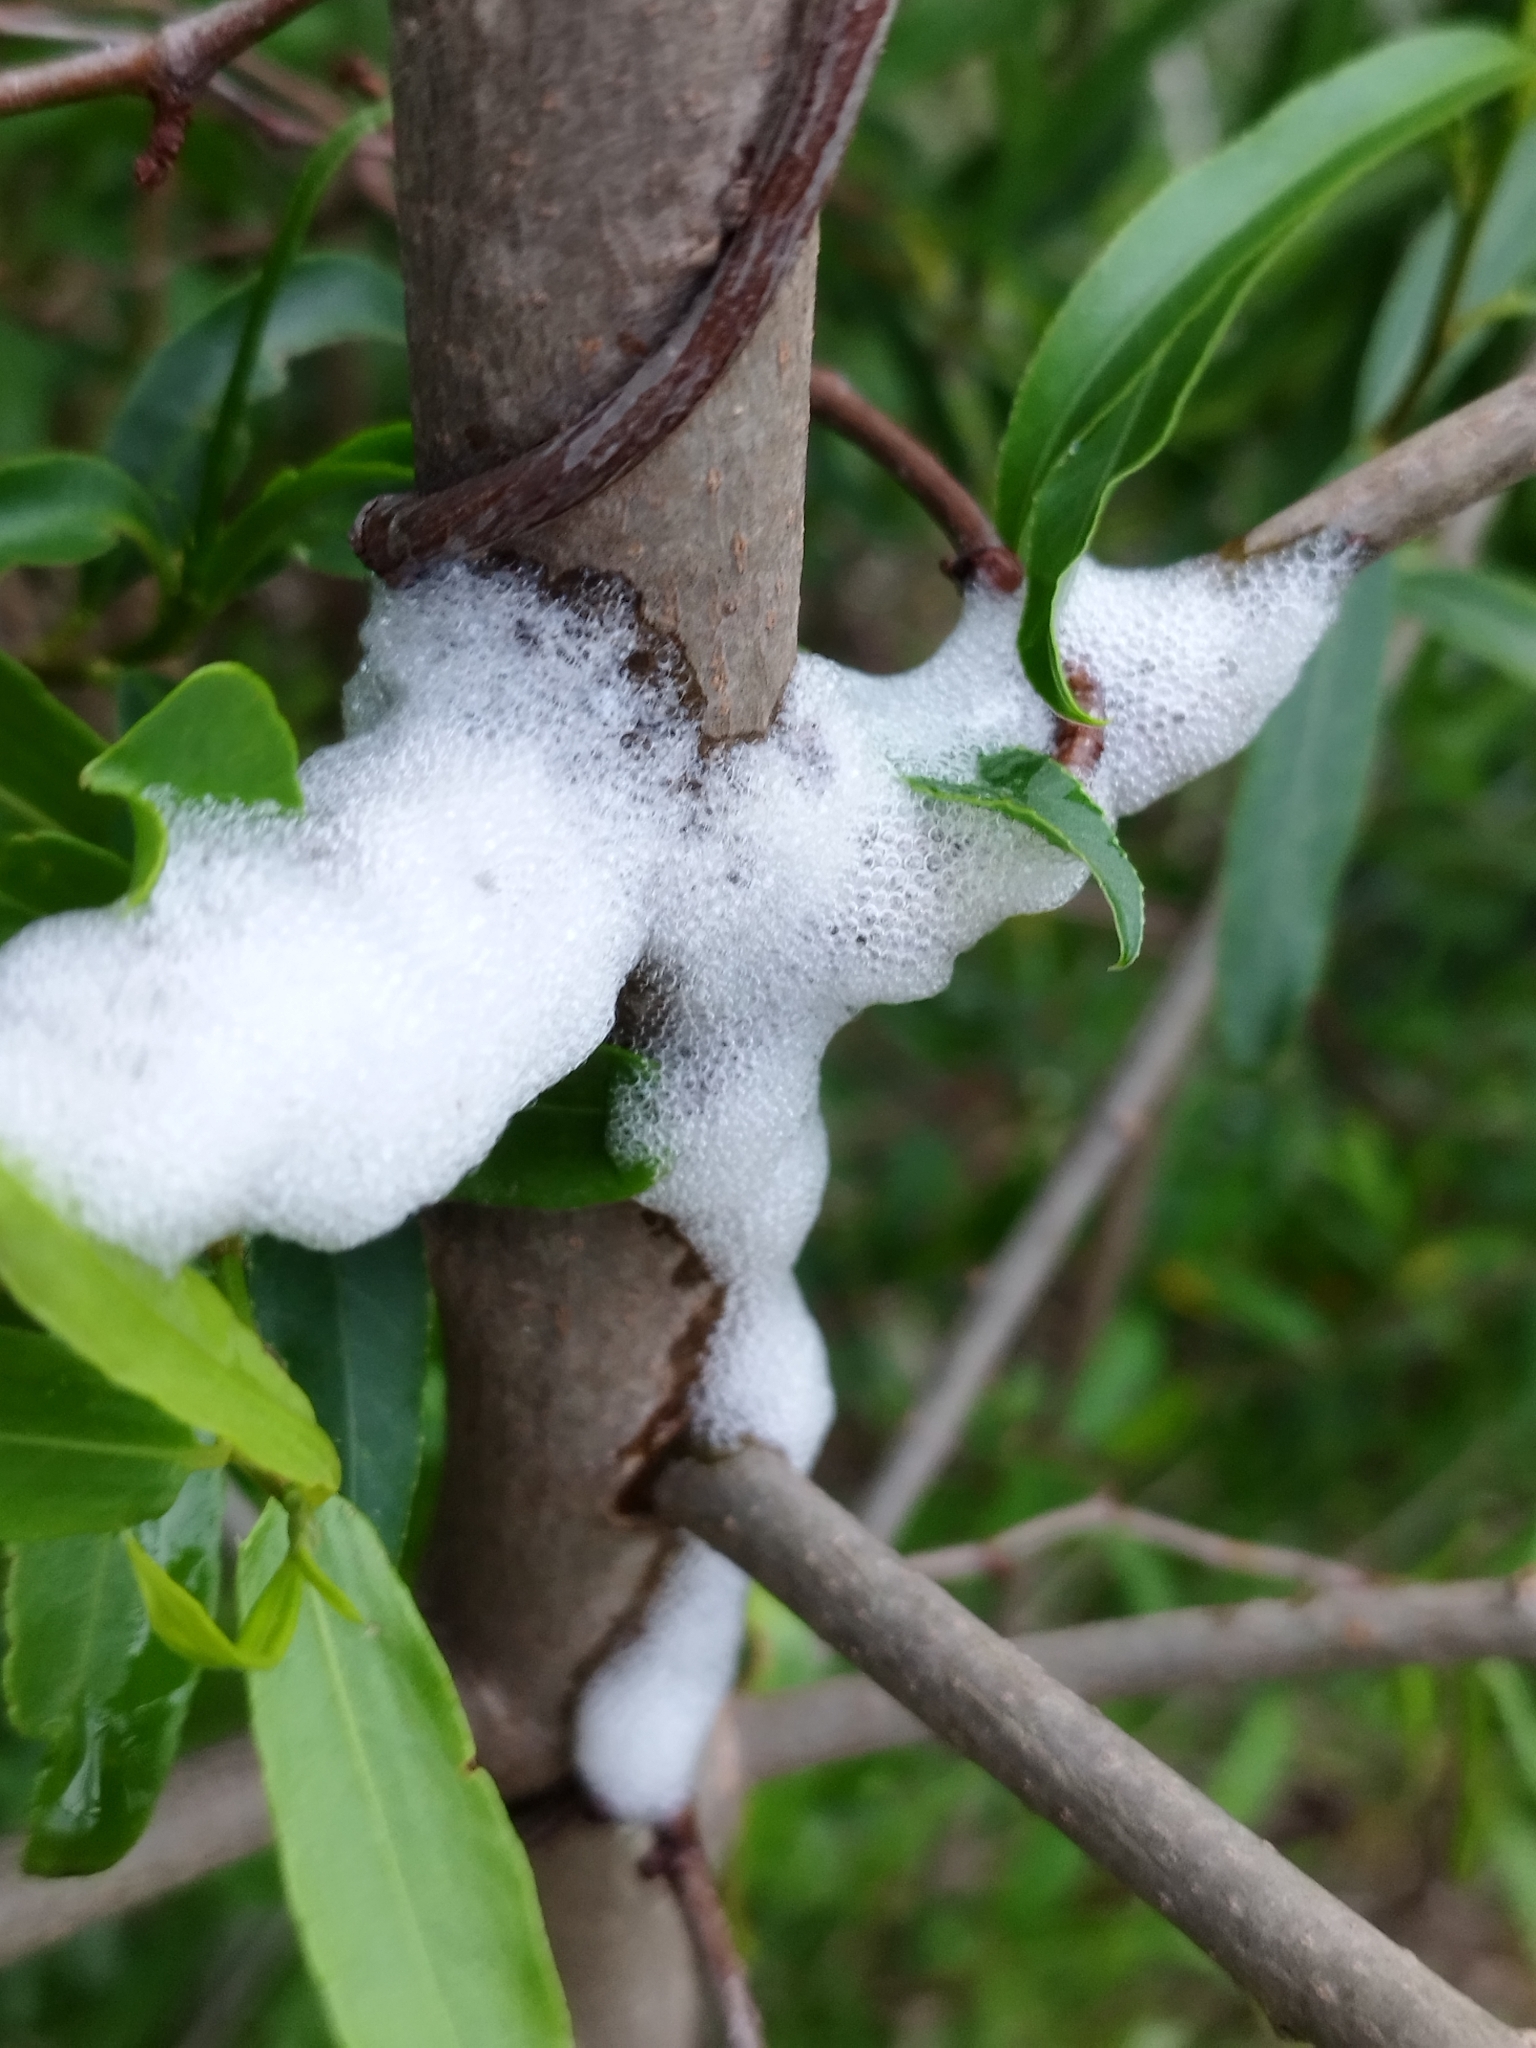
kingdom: Animalia
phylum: Arthropoda
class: Insecta
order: Hemiptera
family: Aphrophoridae
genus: Cephisus
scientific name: Cephisus siccifolius
